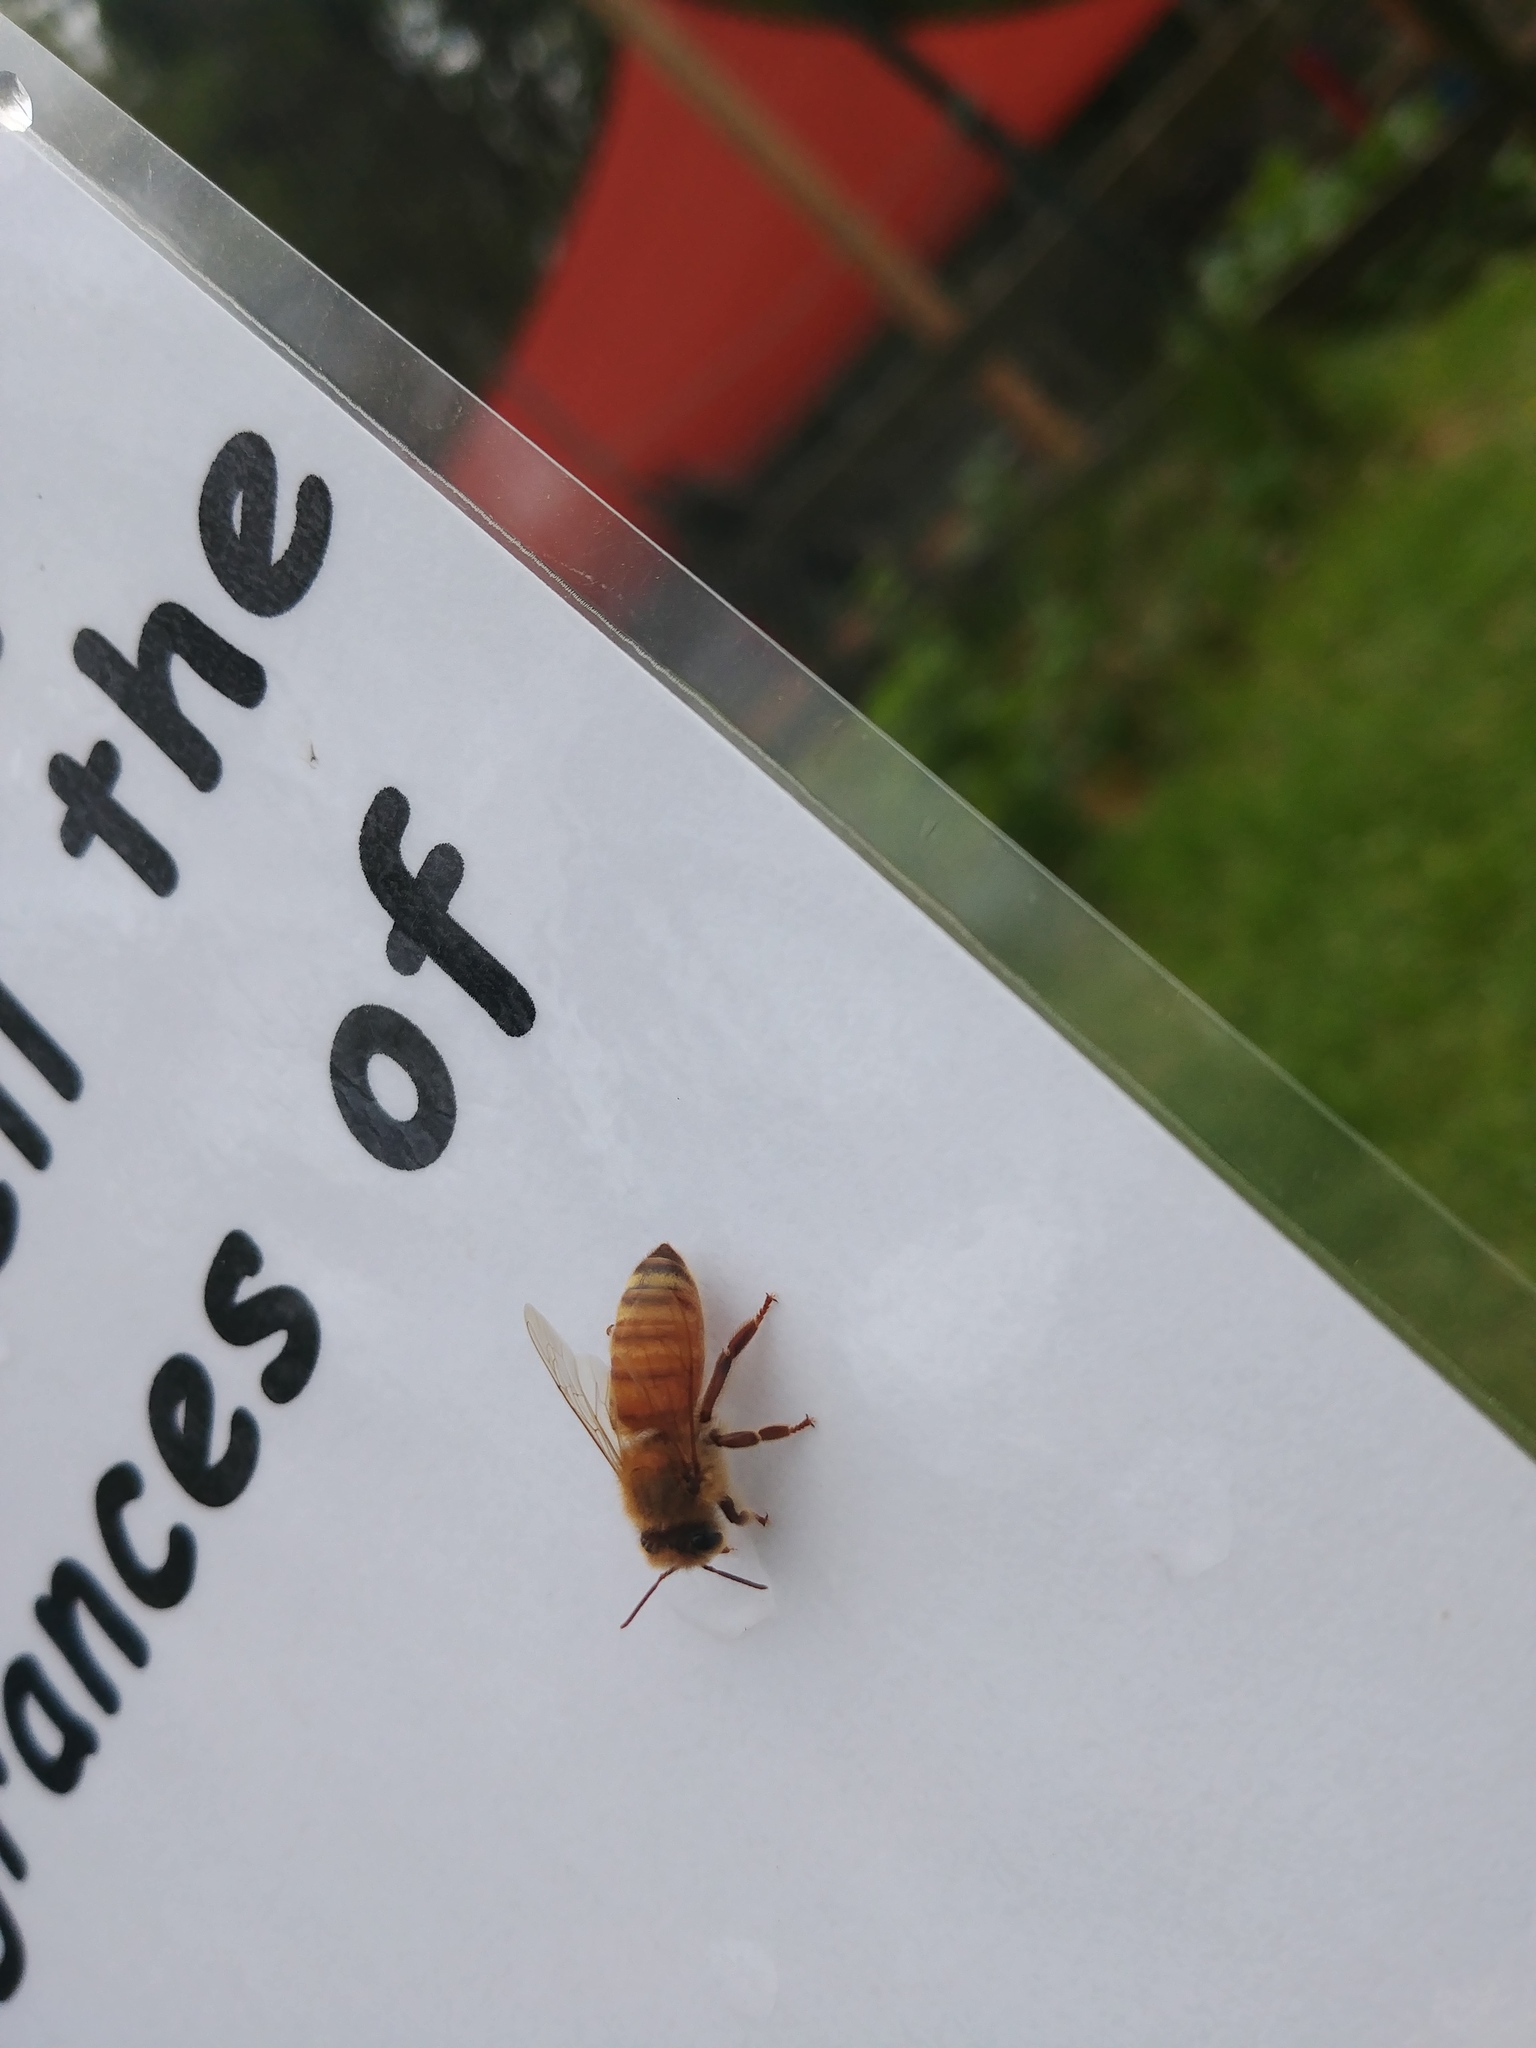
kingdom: Animalia
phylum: Arthropoda
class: Insecta
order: Hymenoptera
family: Apidae
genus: Apis
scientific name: Apis mellifera
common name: Honey bee
